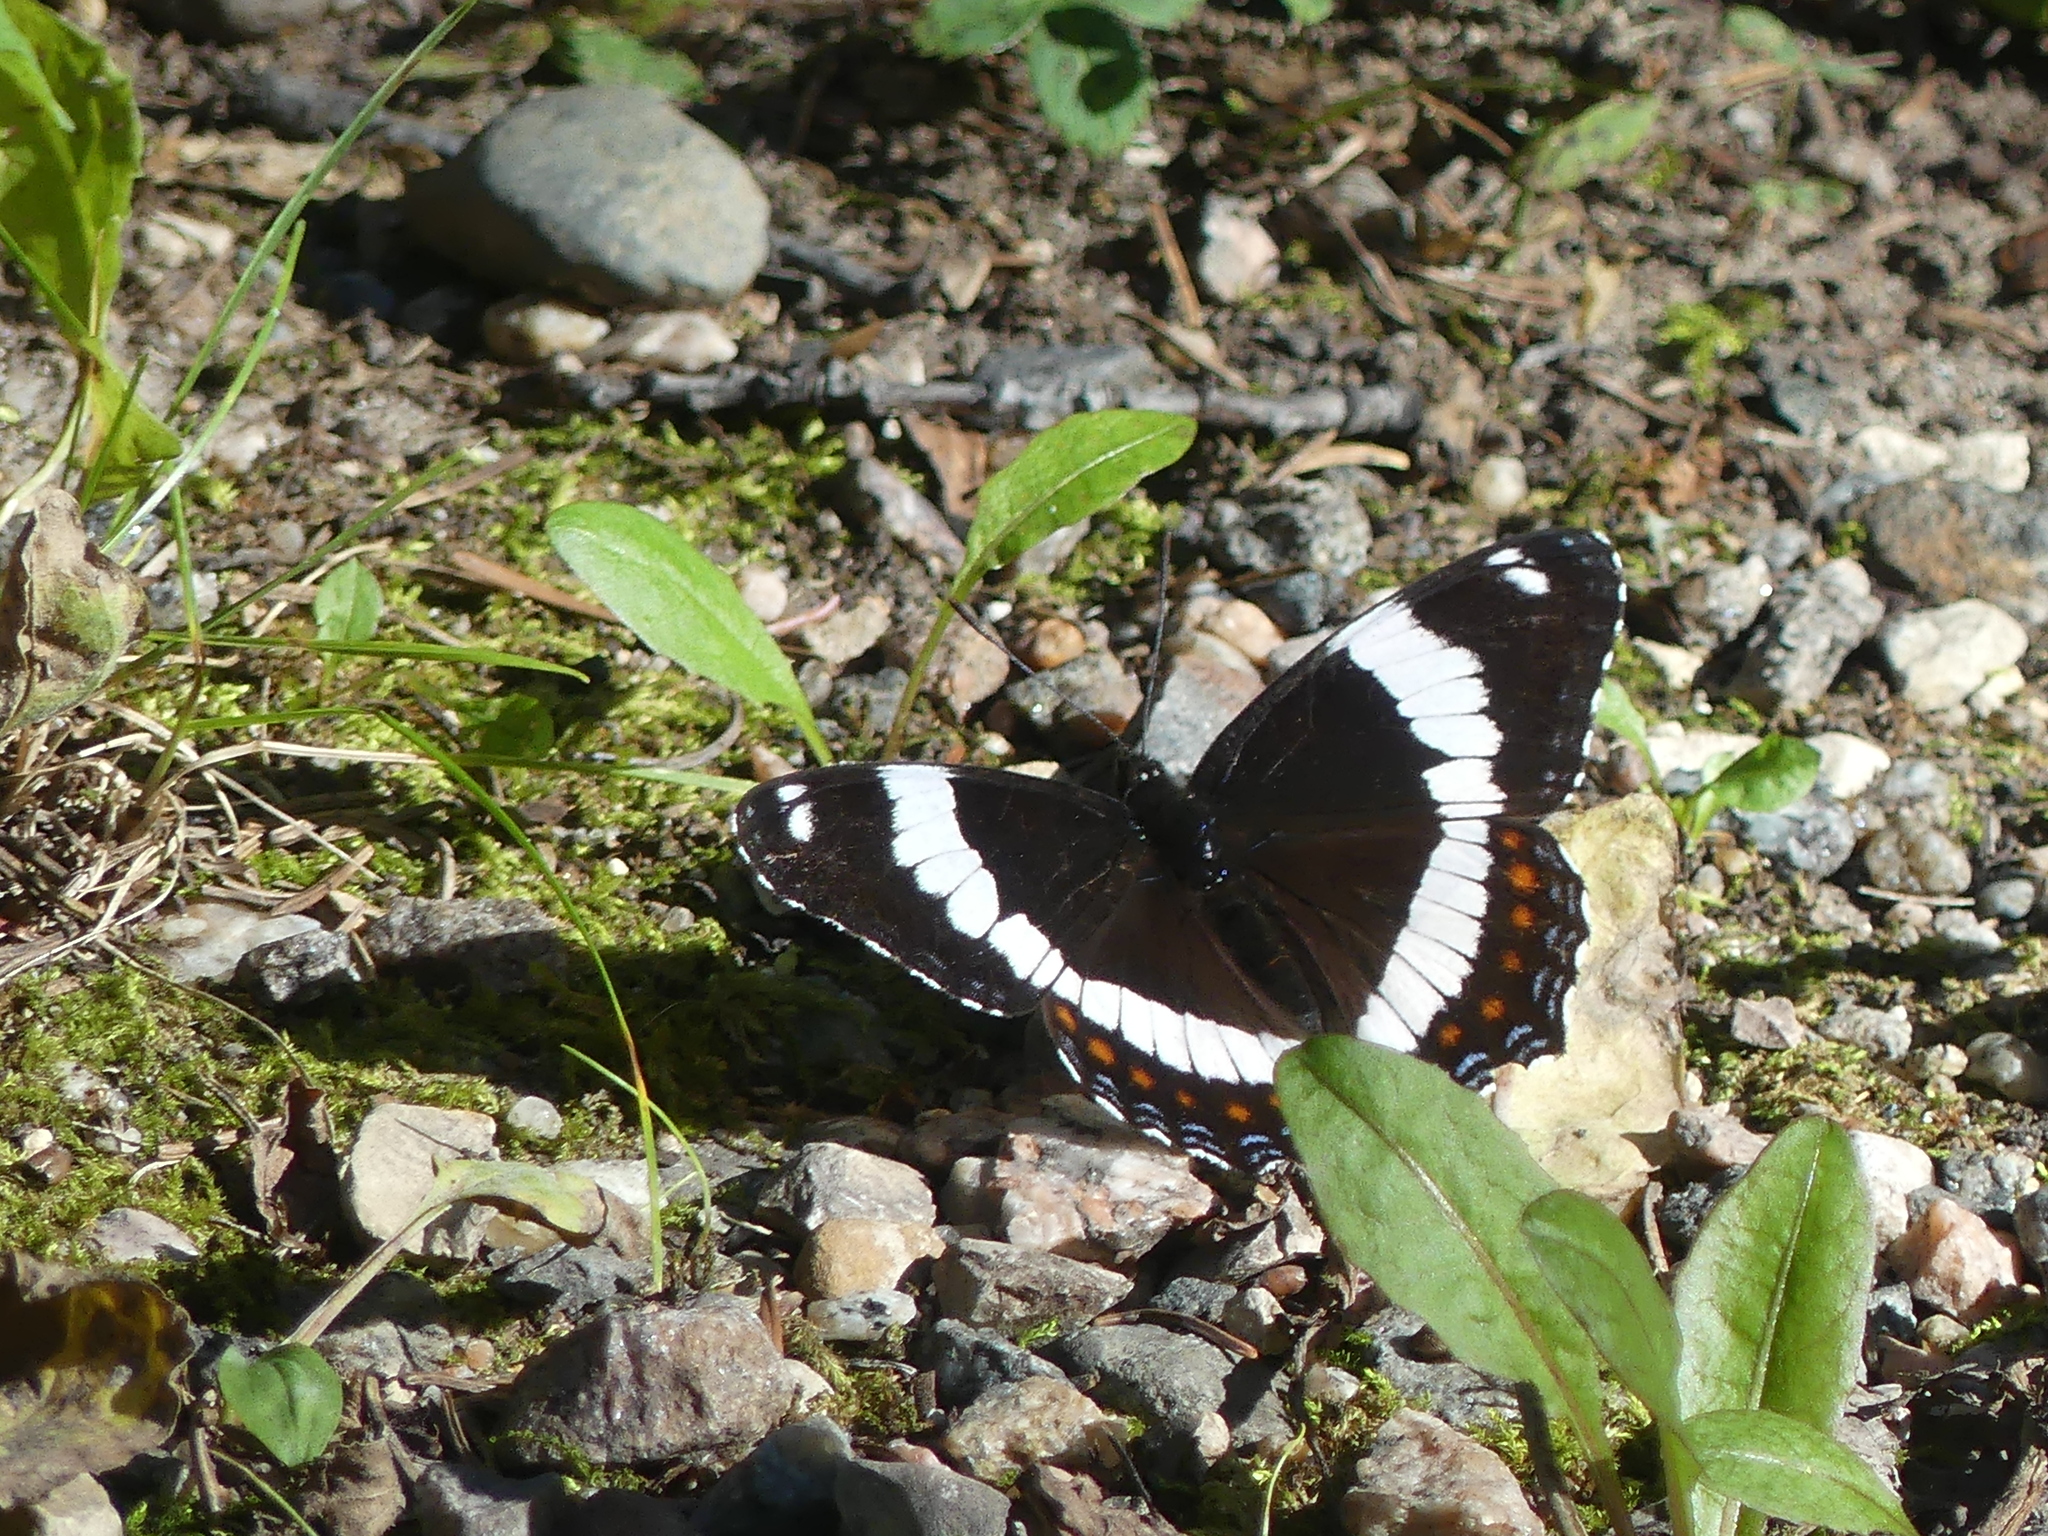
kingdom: Animalia
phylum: Arthropoda
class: Insecta
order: Lepidoptera
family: Nymphalidae
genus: Limenitis
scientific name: Limenitis arthemis
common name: Red-spotted admiral
